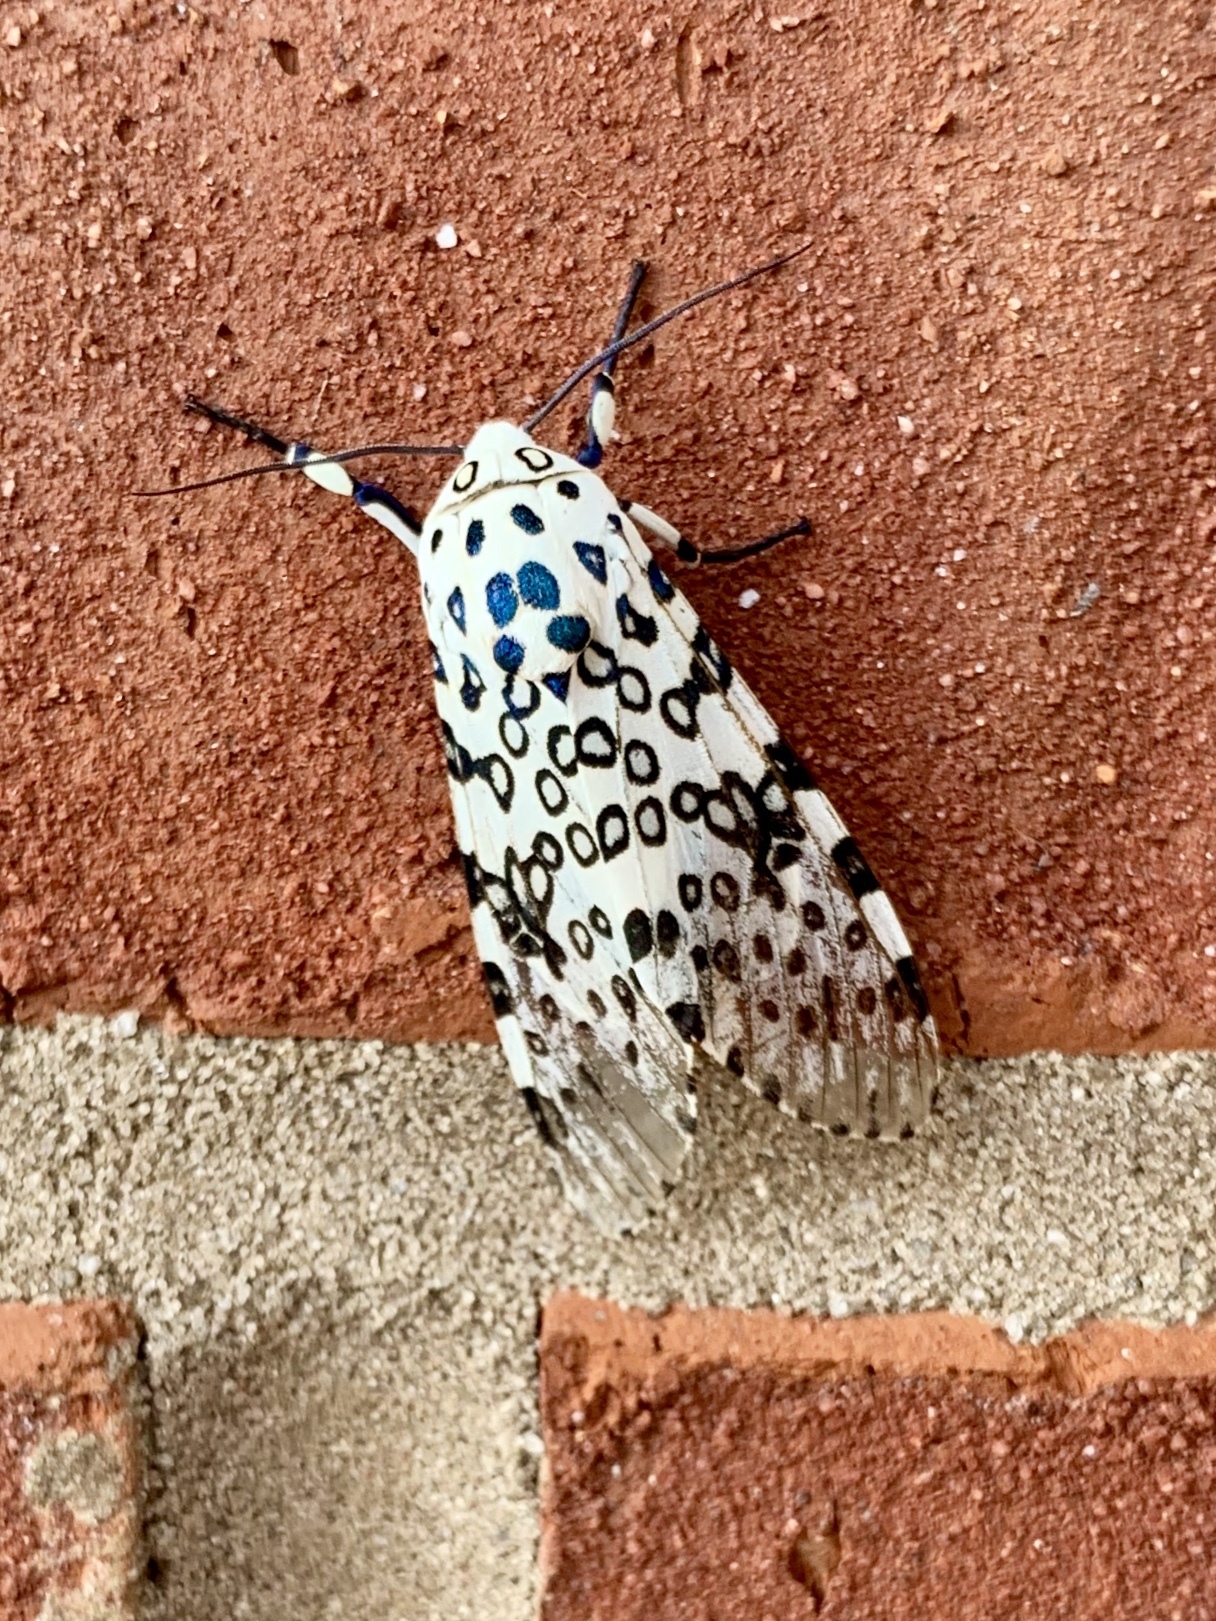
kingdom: Animalia
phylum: Arthropoda
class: Insecta
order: Lepidoptera
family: Erebidae
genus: Hypercompe
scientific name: Hypercompe scribonia
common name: Giant leopard moth
